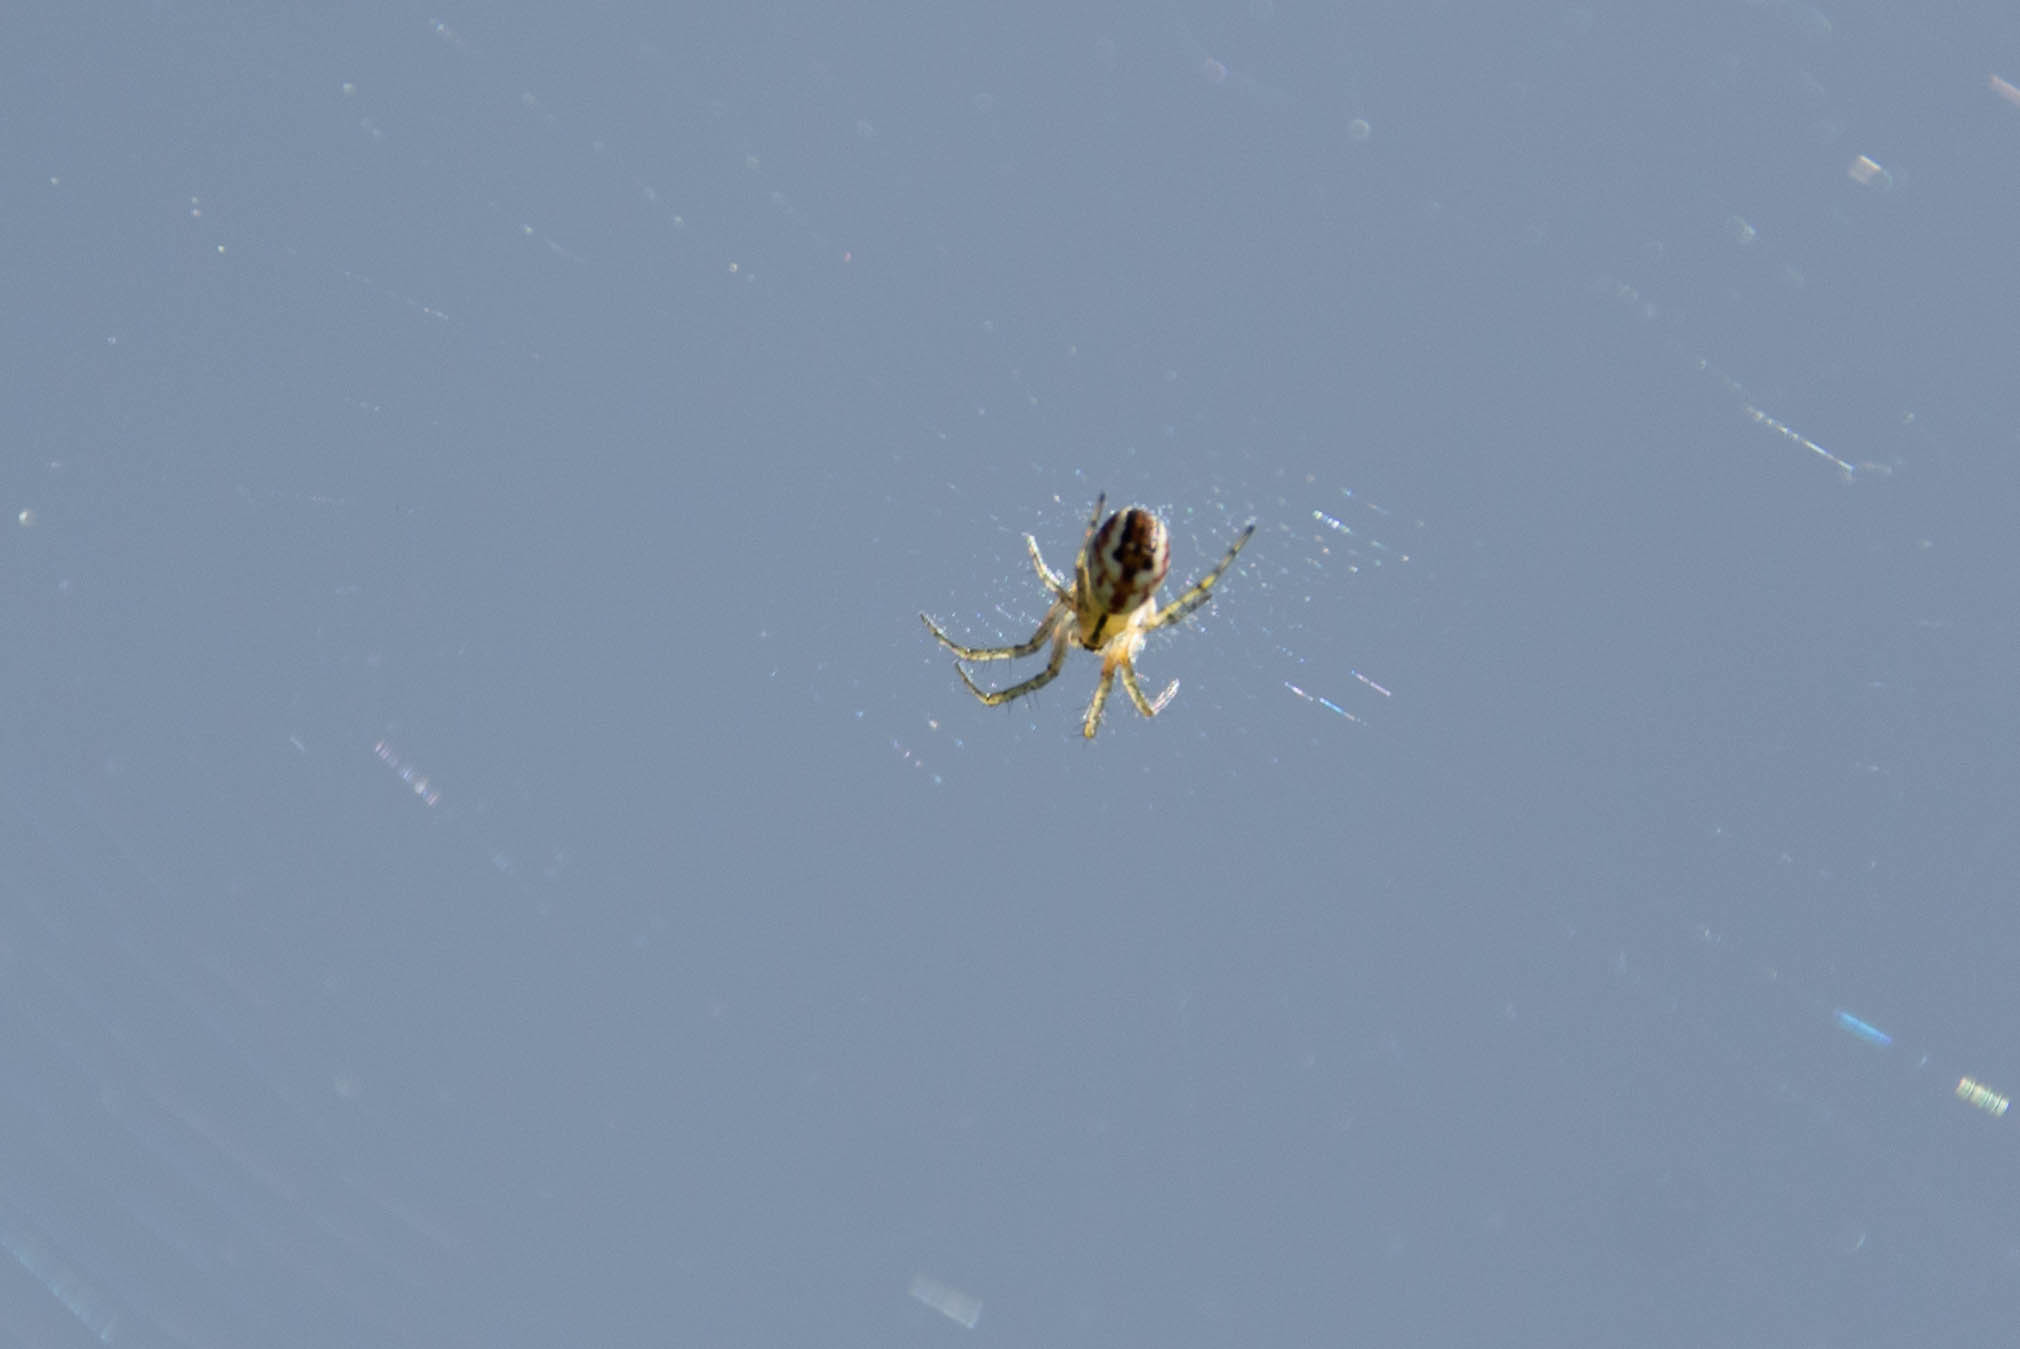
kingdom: Animalia
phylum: Arthropoda
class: Arachnida
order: Araneae
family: Araneidae
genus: Mangora
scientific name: Mangora acalypha
